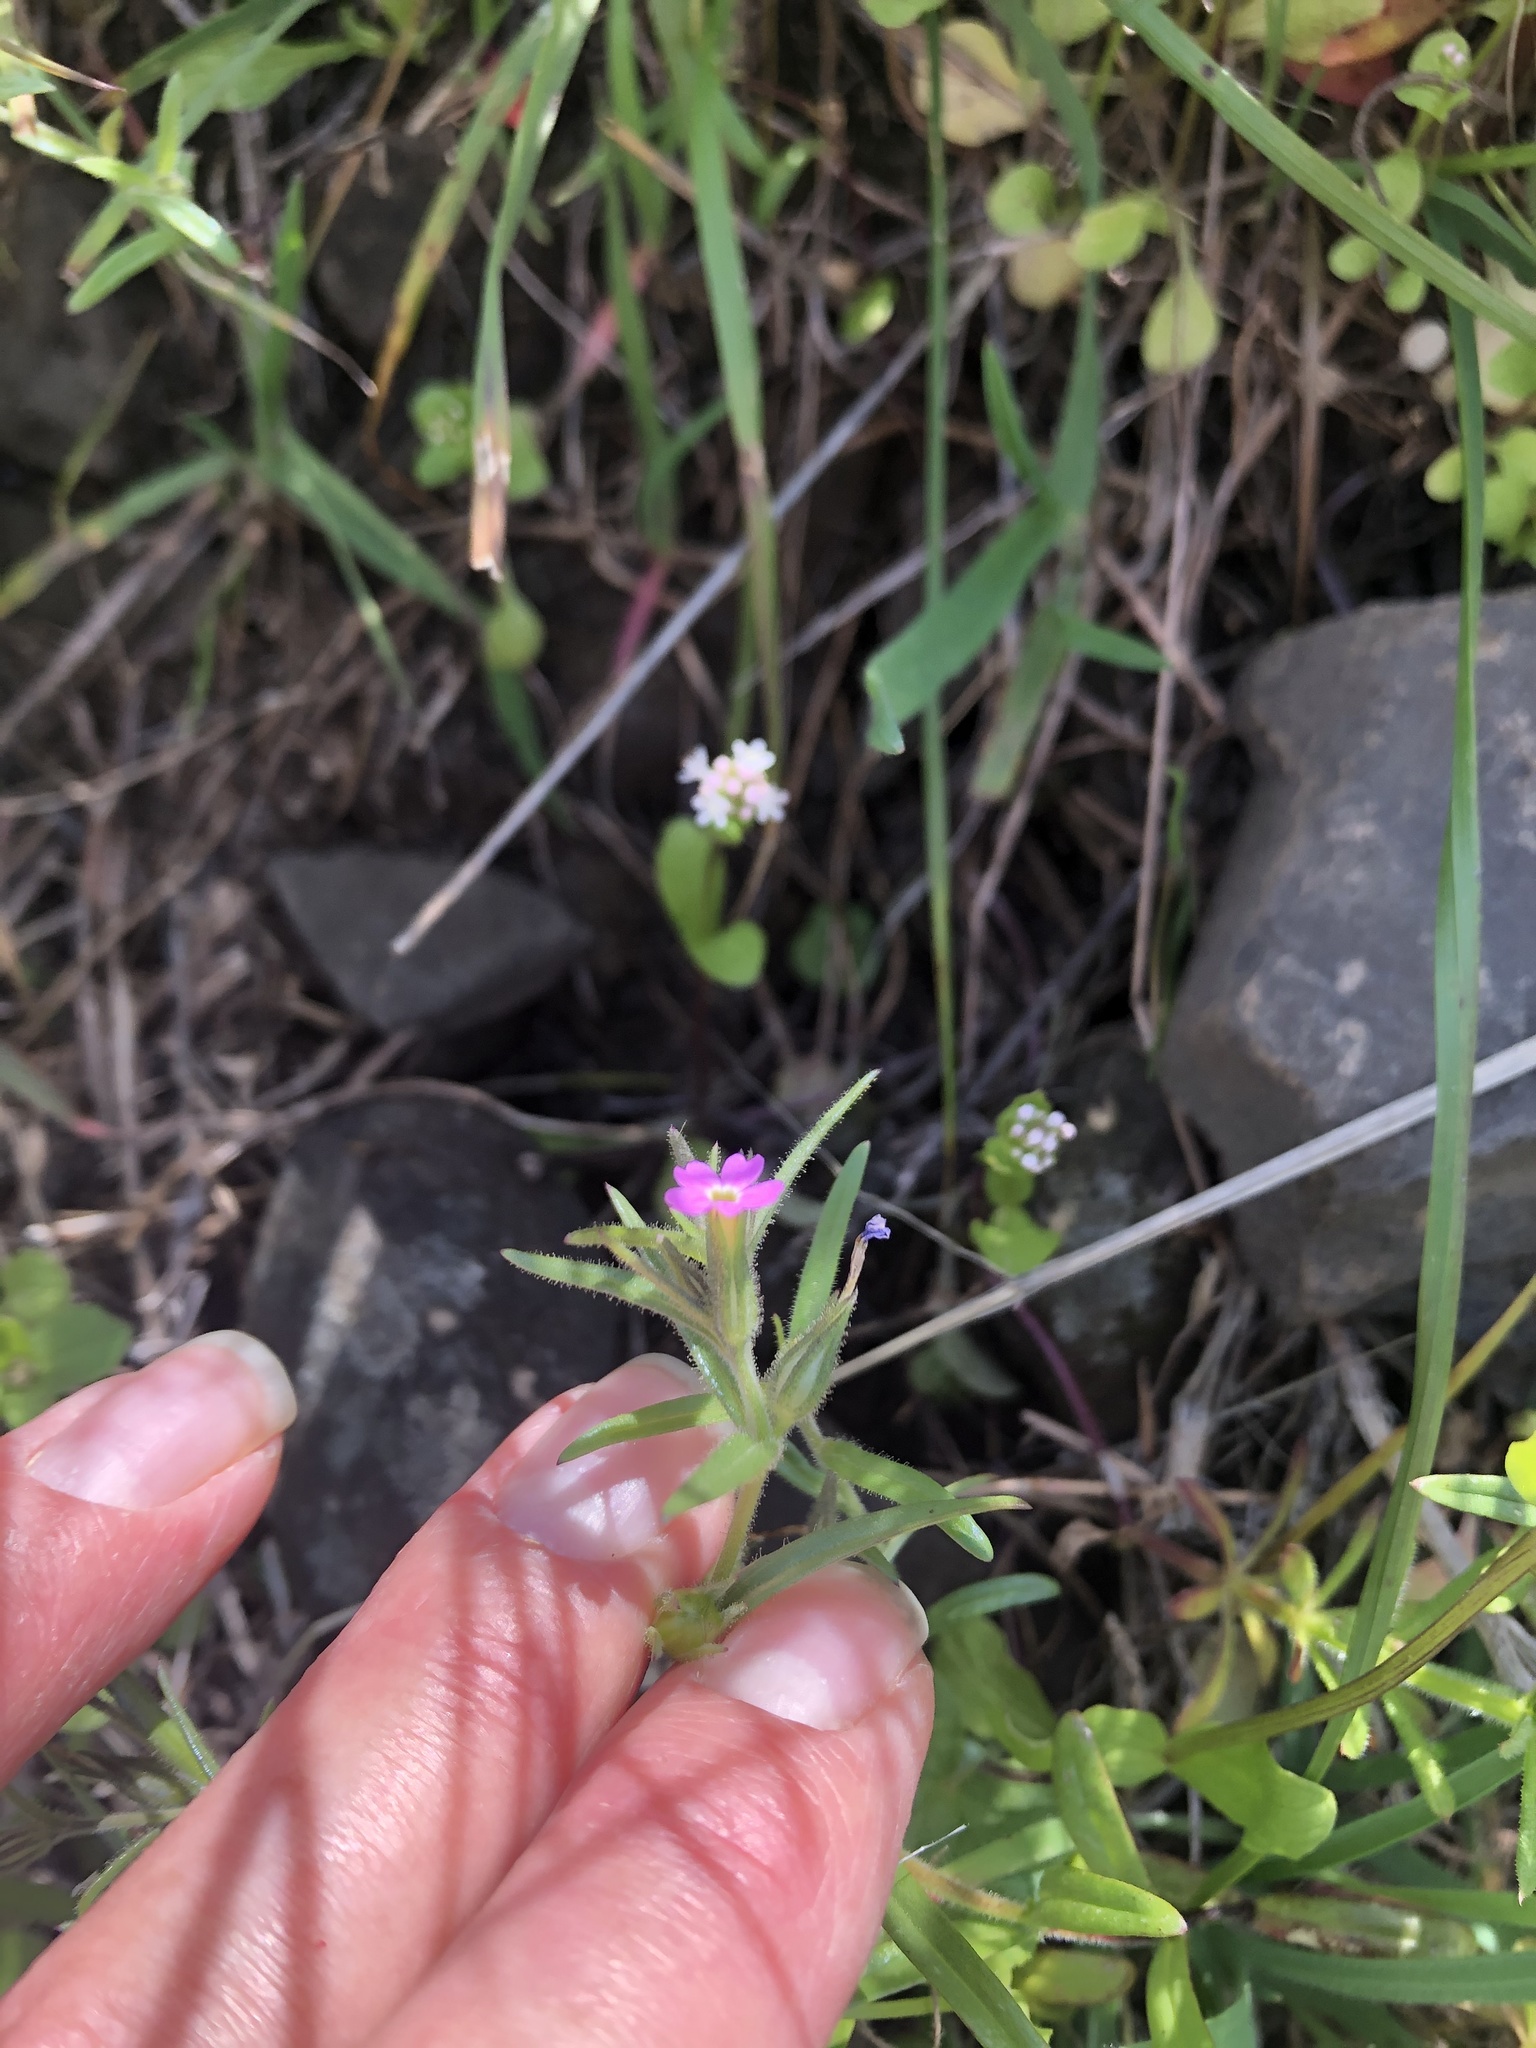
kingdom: Plantae
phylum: Tracheophyta
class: Magnoliopsida
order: Ericales
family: Polemoniaceae
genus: Phlox
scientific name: Phlox gracilis
